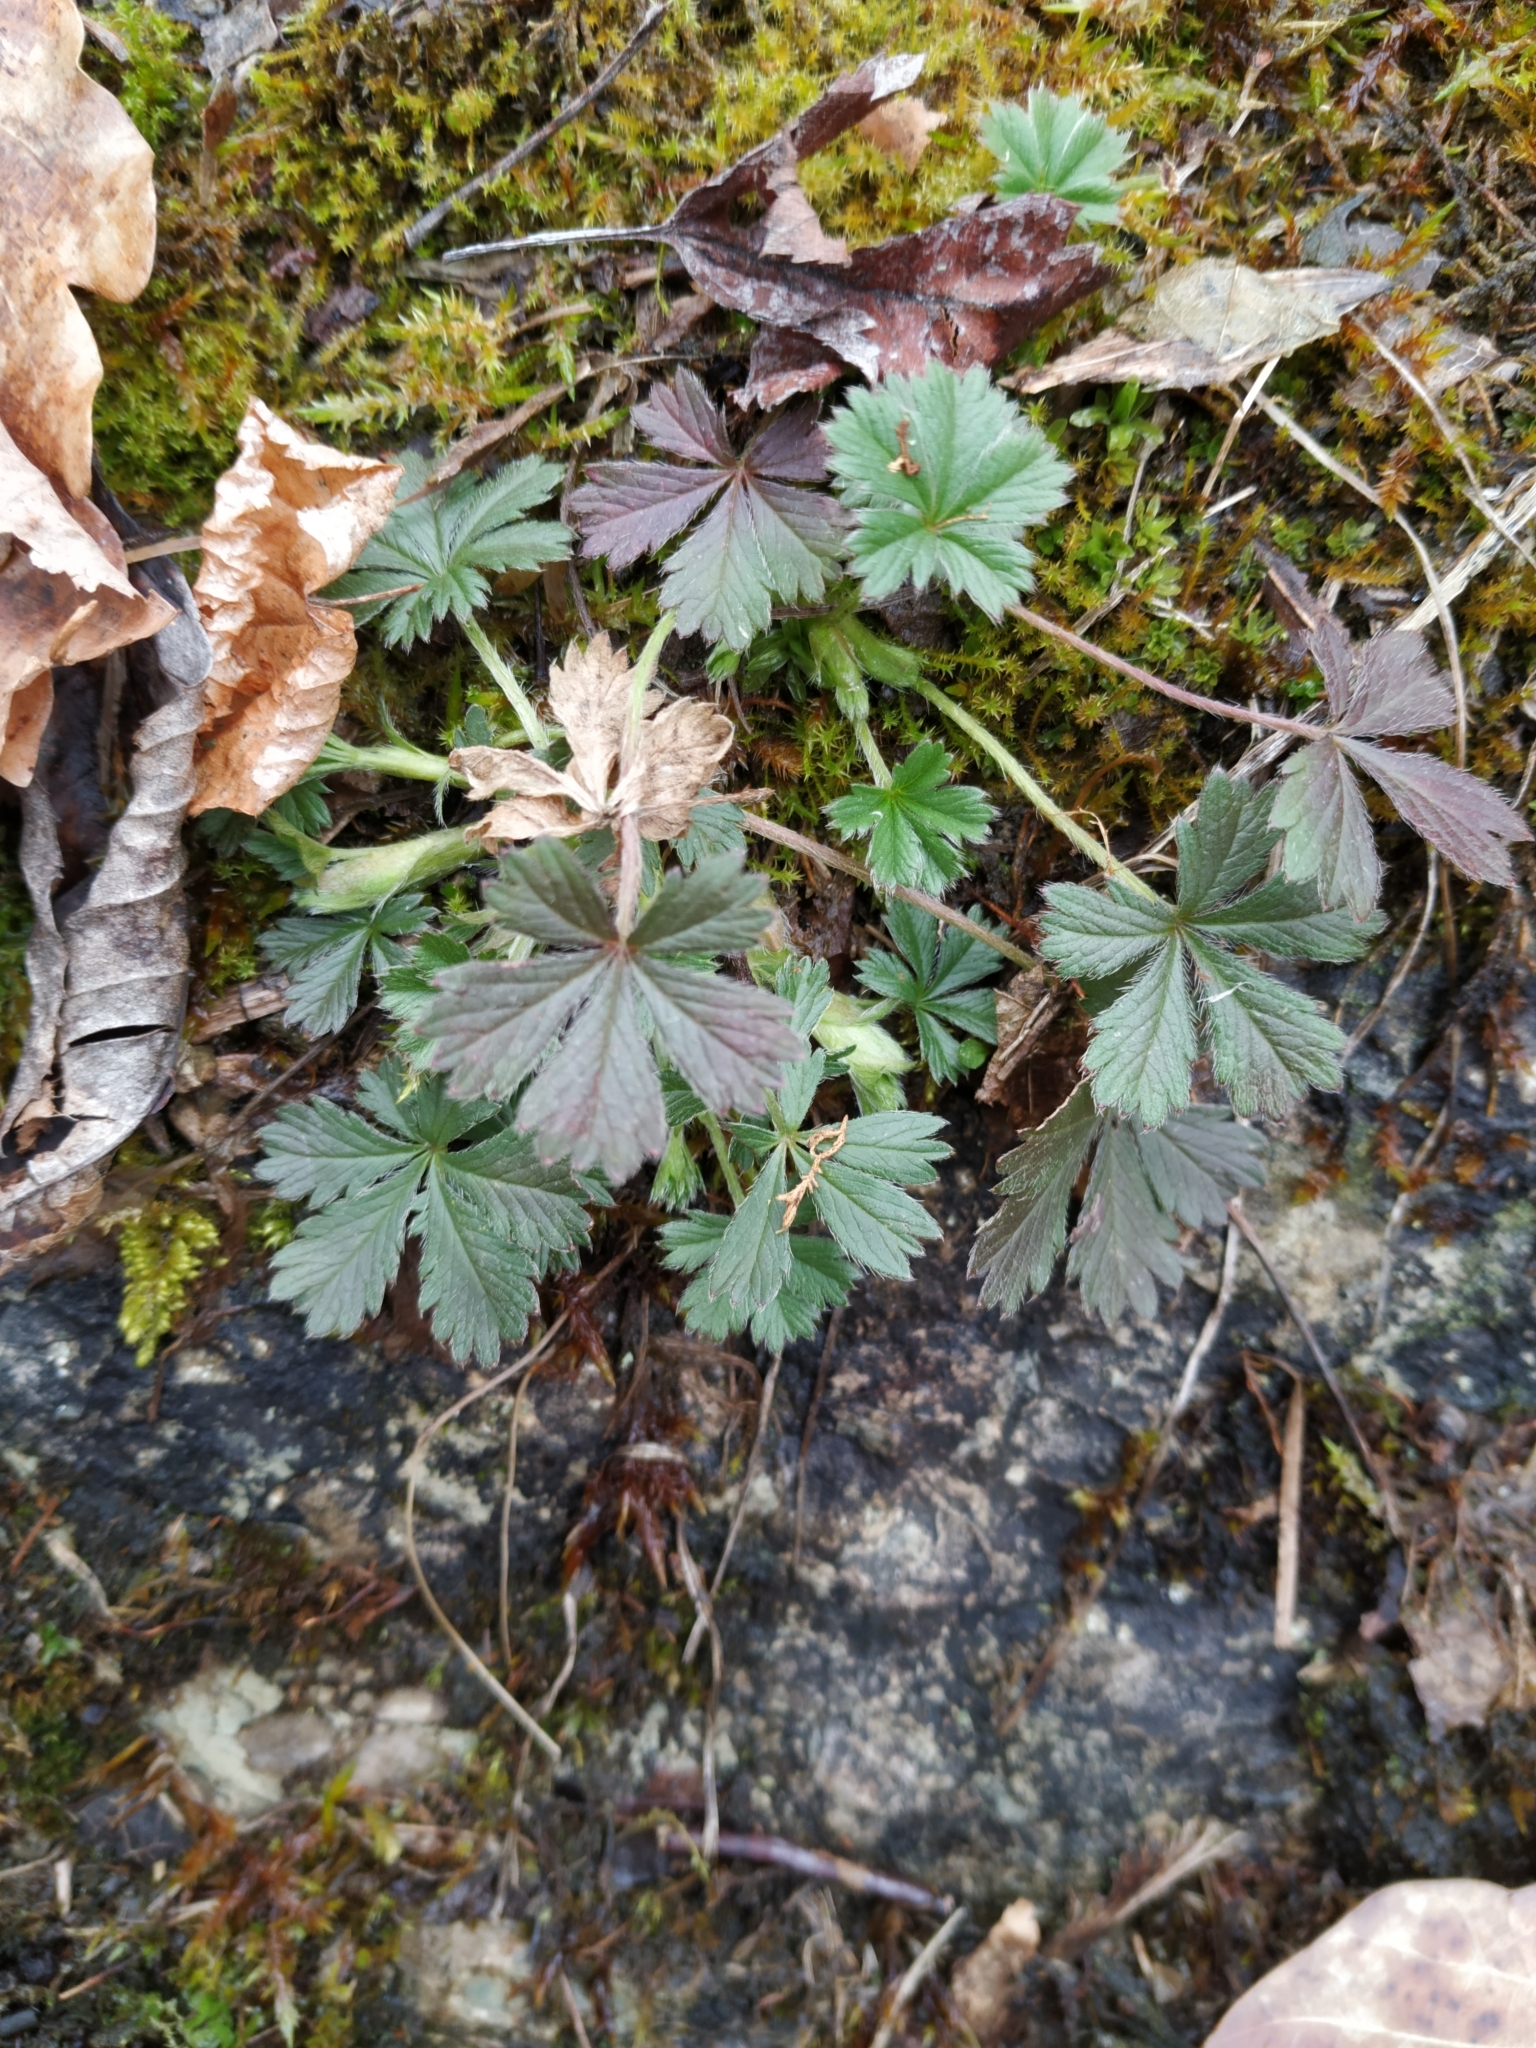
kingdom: Plantae
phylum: Tracheophyta
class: Magnoliopsida
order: Rosales
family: Rosaceae
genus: Potentilla
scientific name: Potentilla verna
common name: Spring cinquefoil
